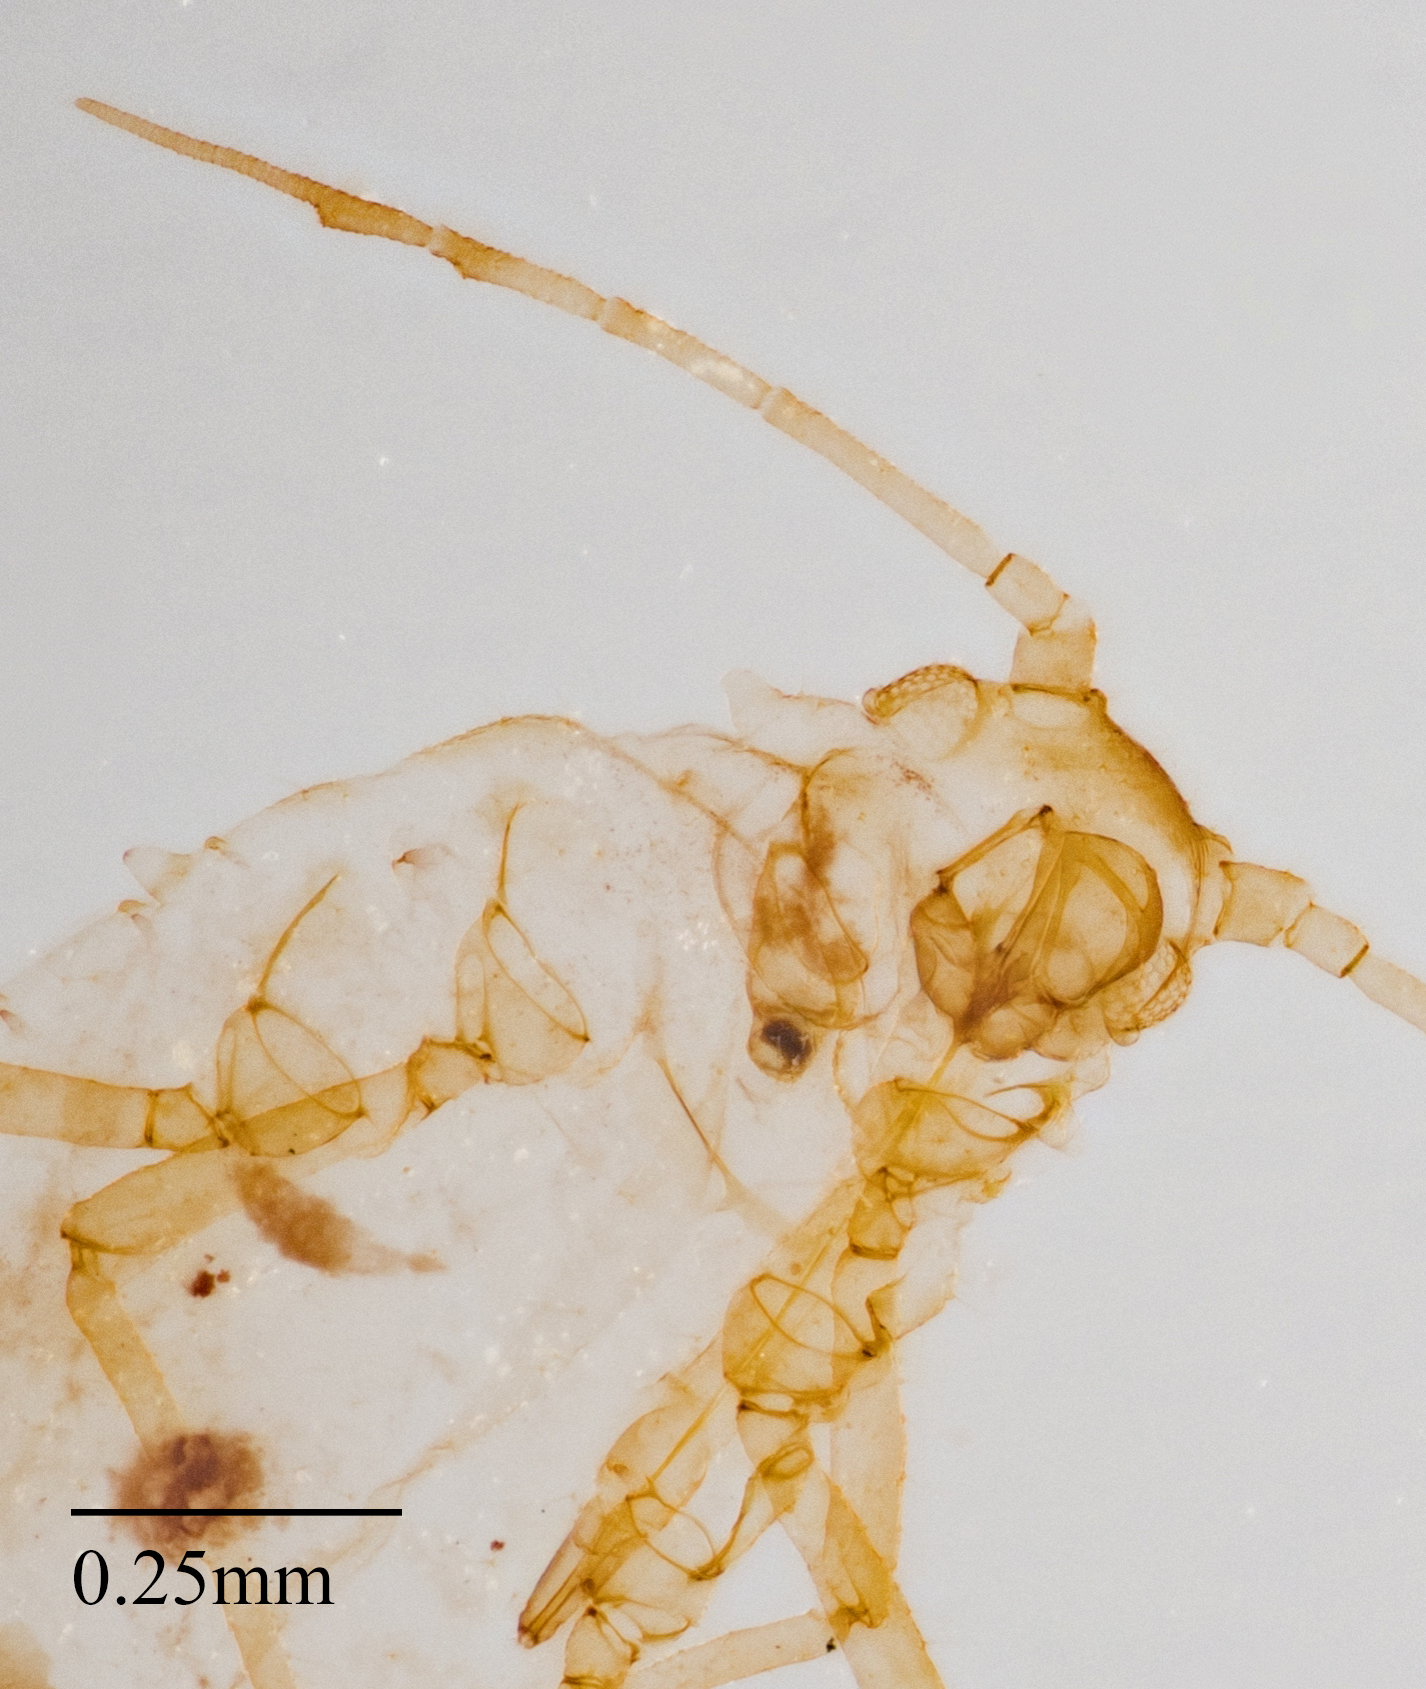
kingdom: Animalia
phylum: Arthropoda
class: Insecta
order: Hemiptera
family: Aphididae
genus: Aphis
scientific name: Aphis pentstemonicola
